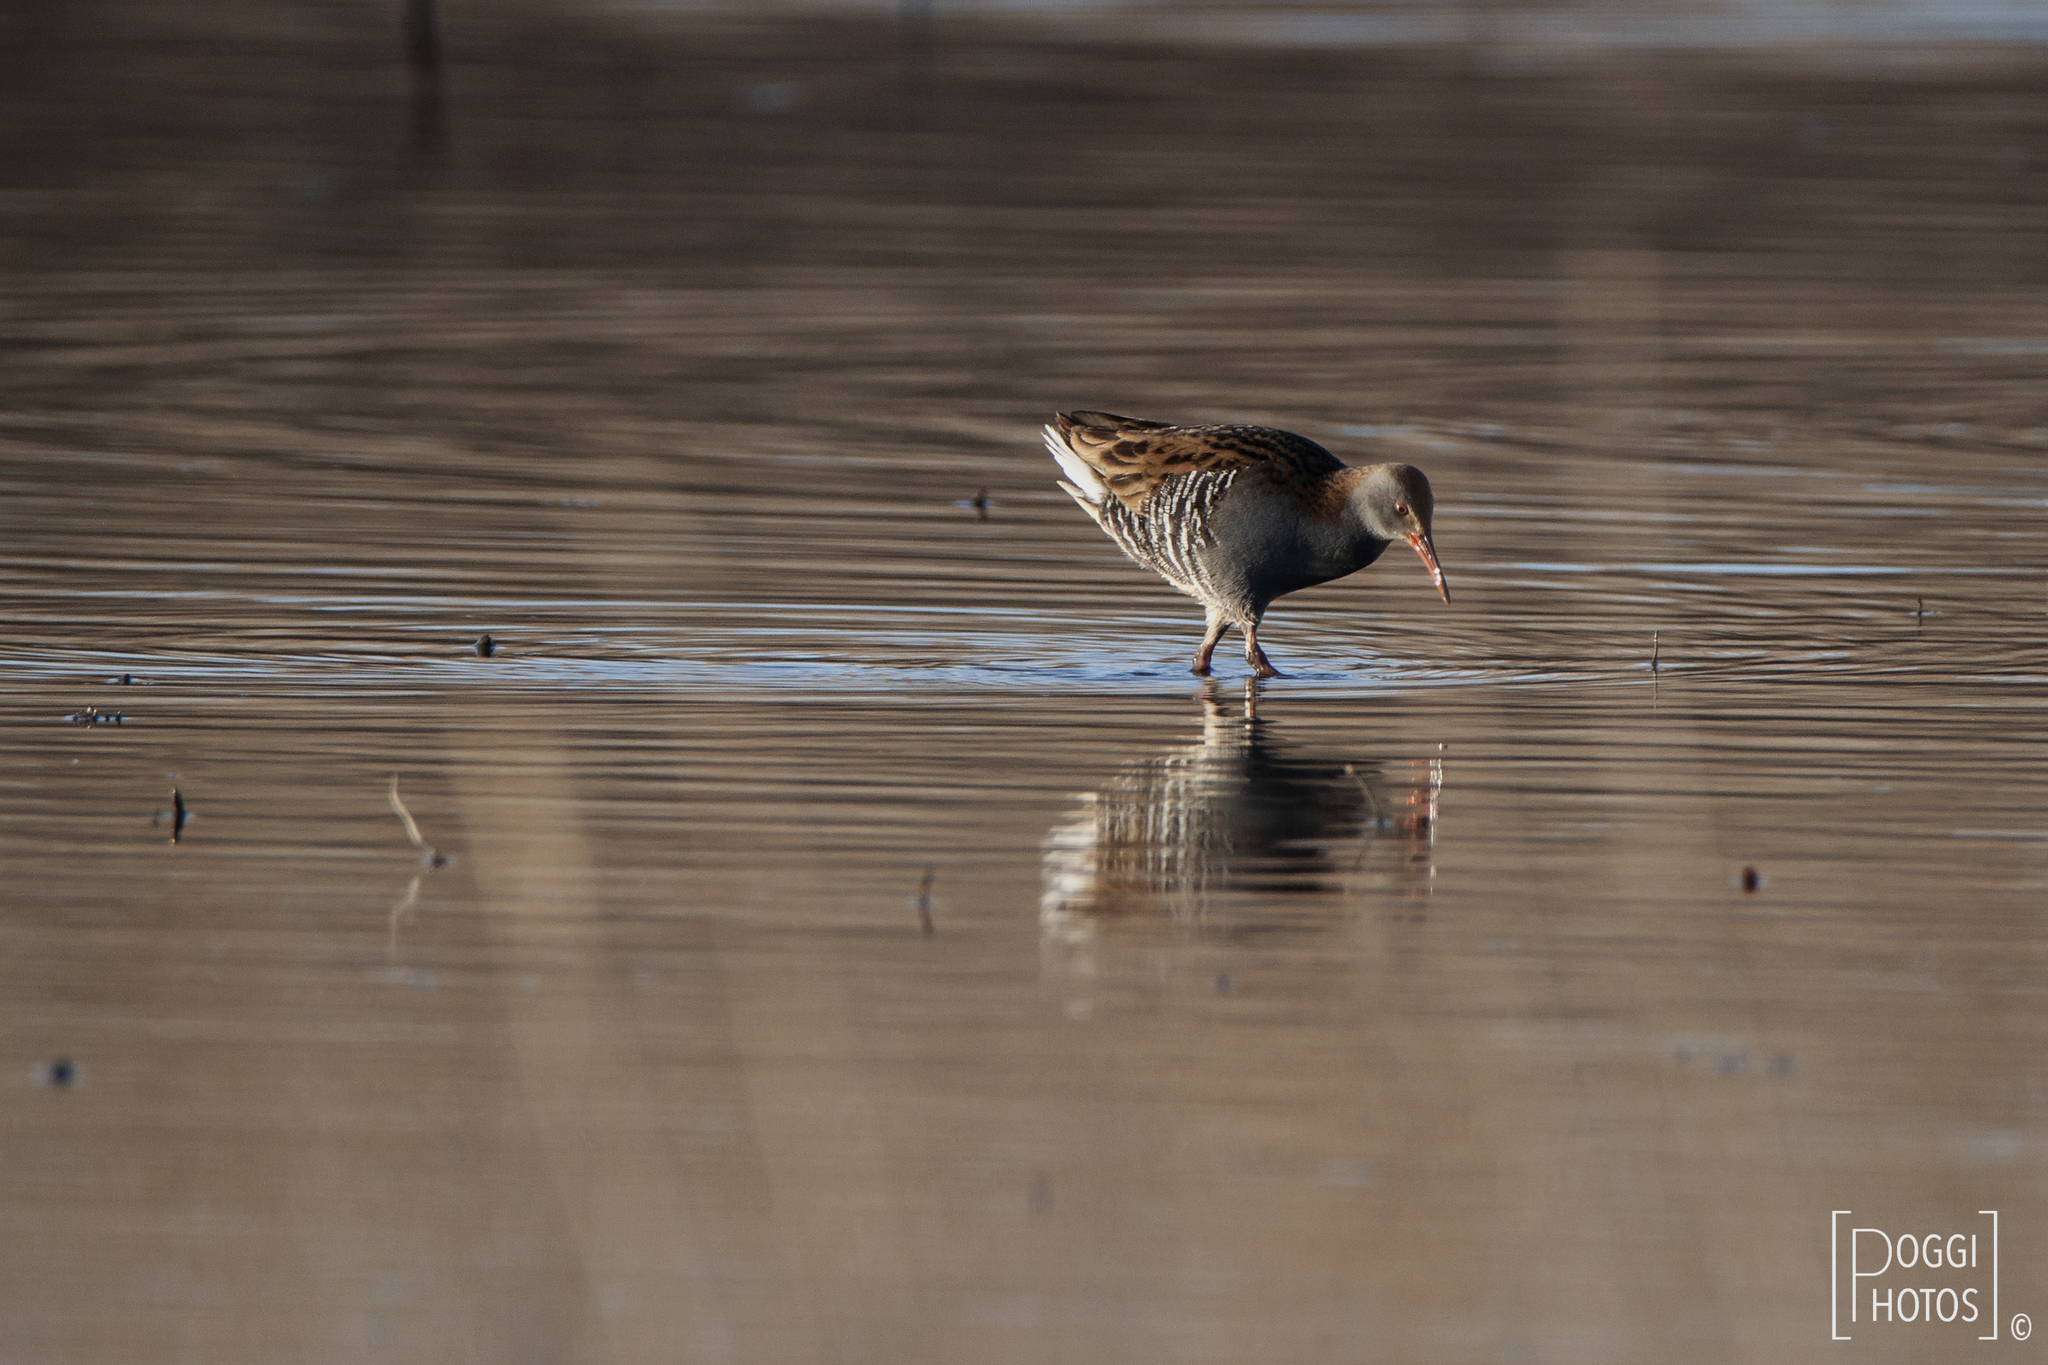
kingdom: Animalia
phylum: Chordata
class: Aves
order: Gruiformes
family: Rallidae
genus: Rallus
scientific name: Rallus aquaticus
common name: Water rail
